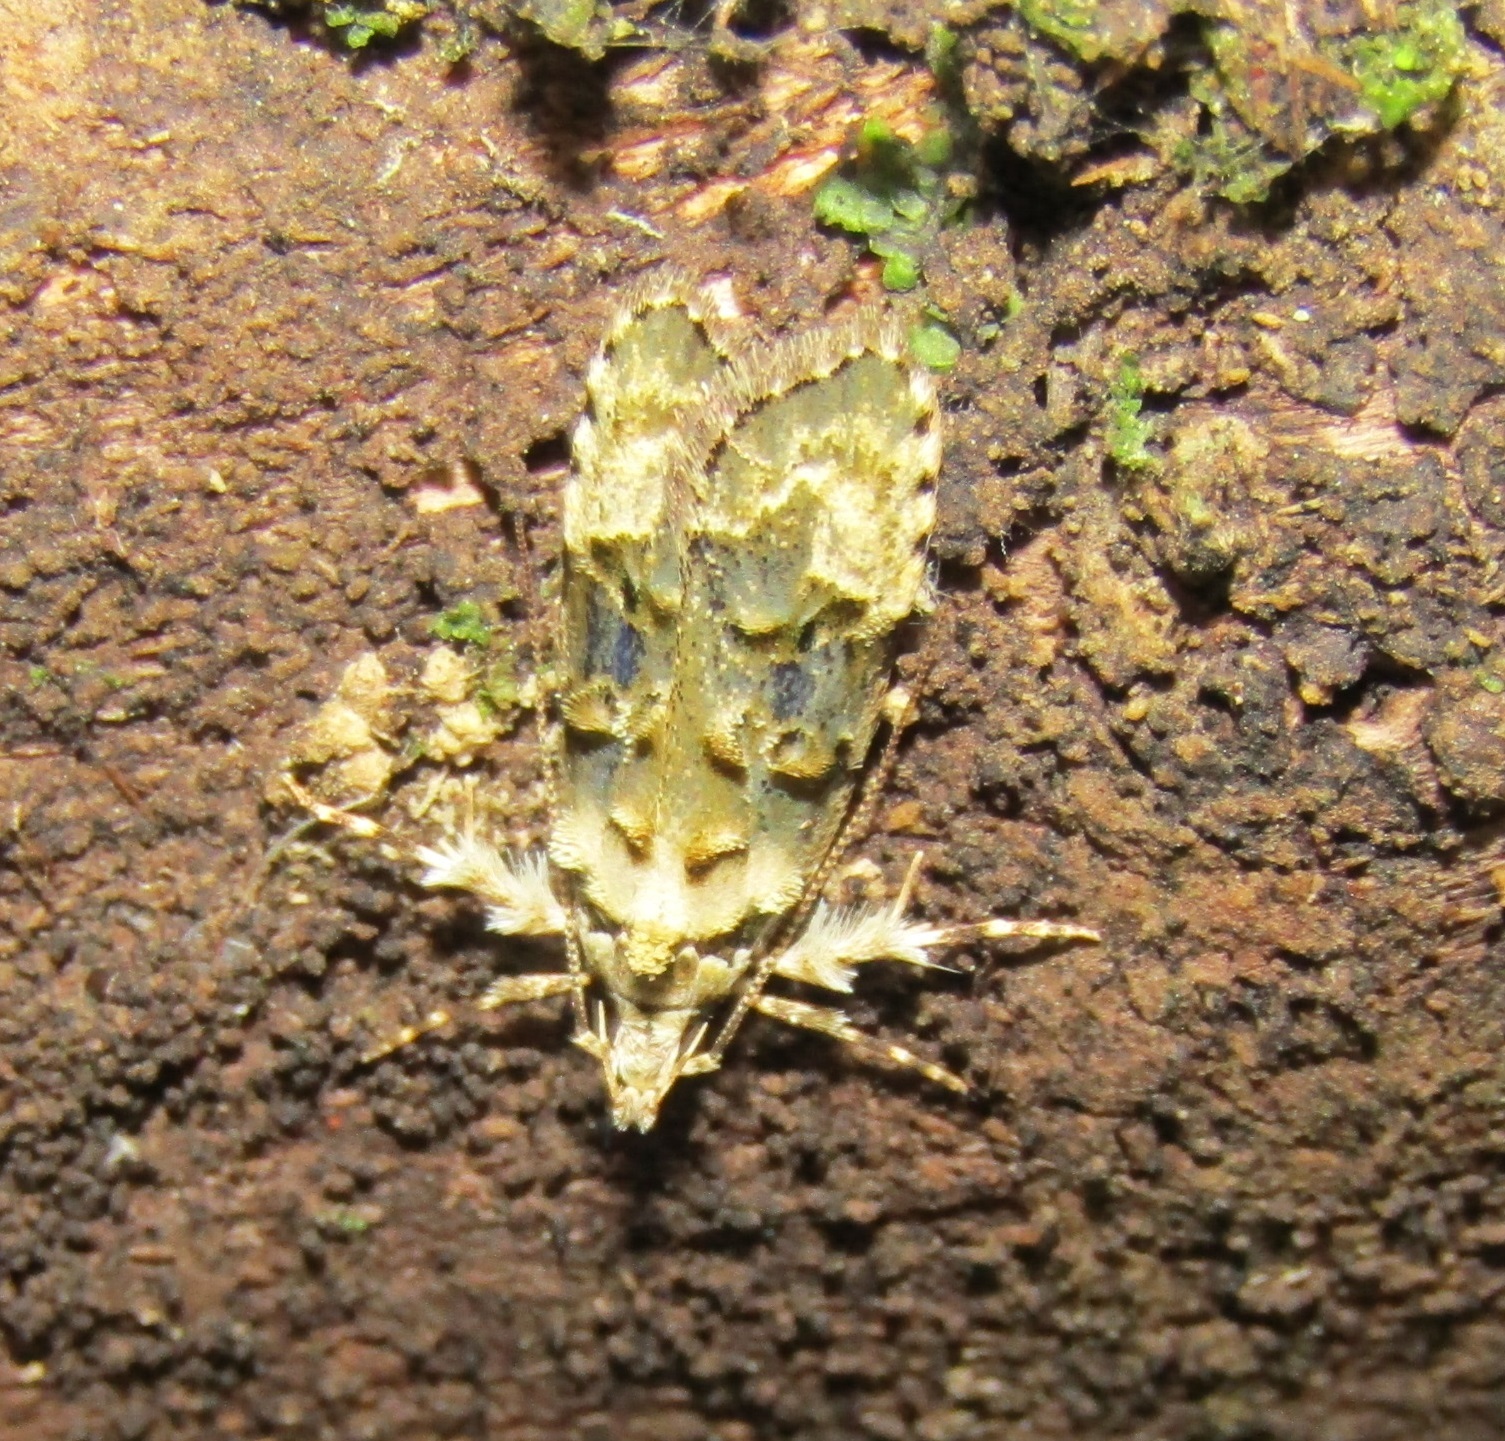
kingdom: Animalia
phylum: Arthropoda
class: Insecta
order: Lepidoptera
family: Oecophoridae
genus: Izatha
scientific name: Izatha prasophyta
